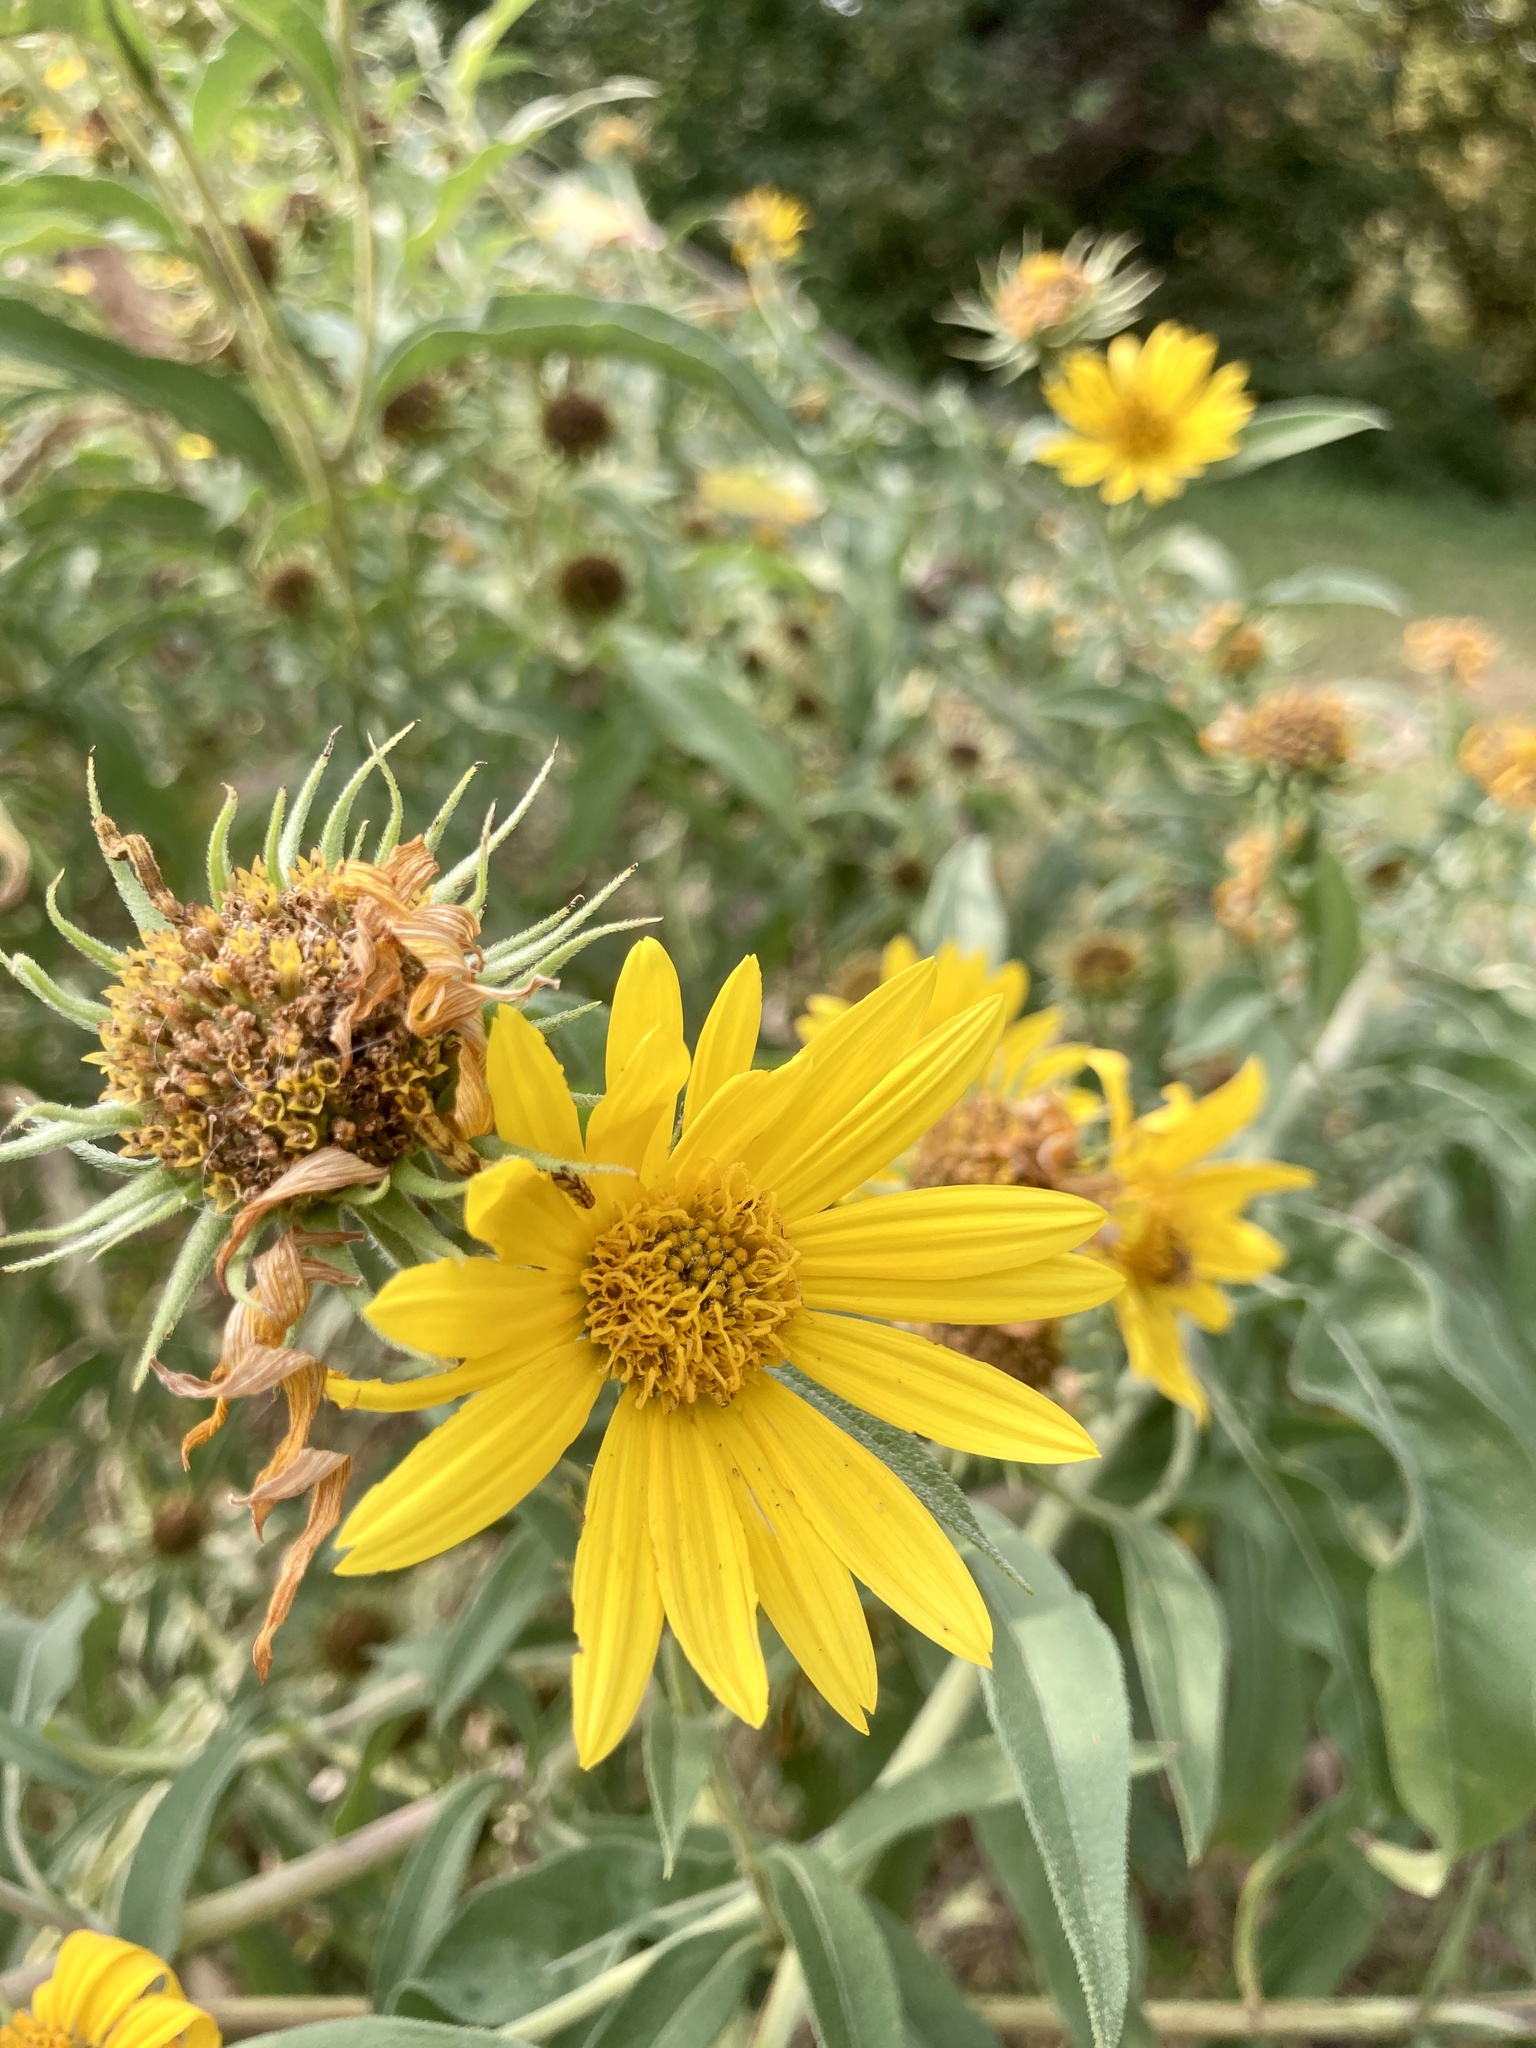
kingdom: Plantae
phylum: Tracheophyta
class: Magnoliopsida
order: Asterales
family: Asteraceae
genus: Helianthus
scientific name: Helianthus maximiliani
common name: Maximilian's sunflower
